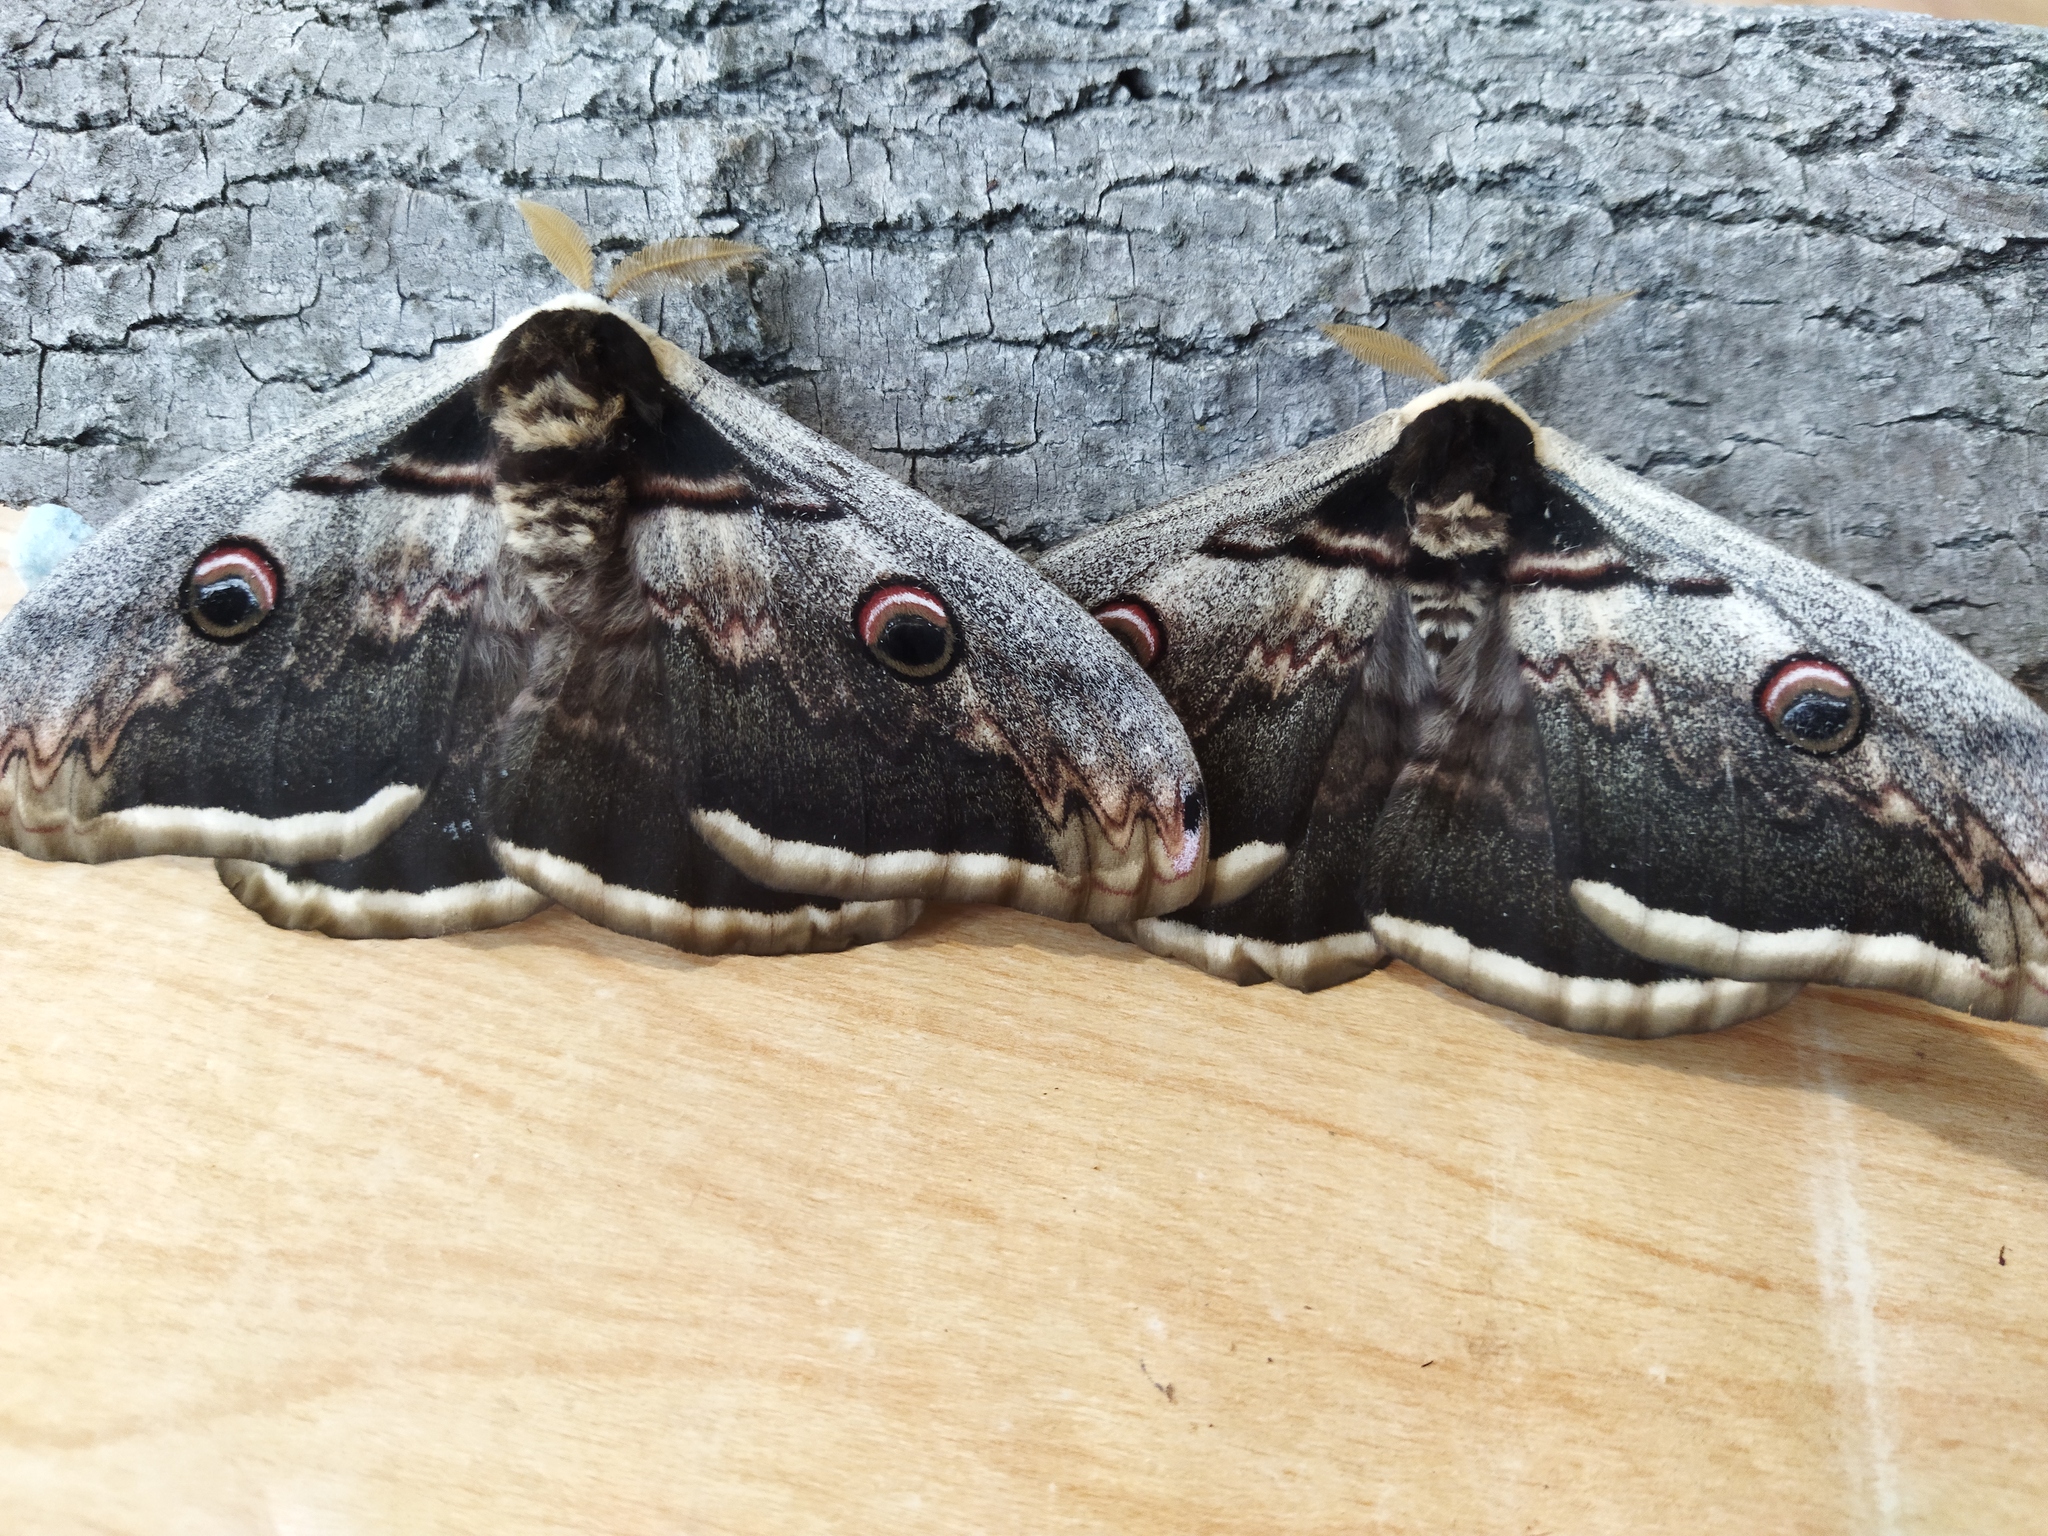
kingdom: Animalia
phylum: Arthropoda
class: Insecta
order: Lepidoptera
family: Saturniidae
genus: Saturnia
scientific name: Saturnia pyri
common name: Great peacock moth
